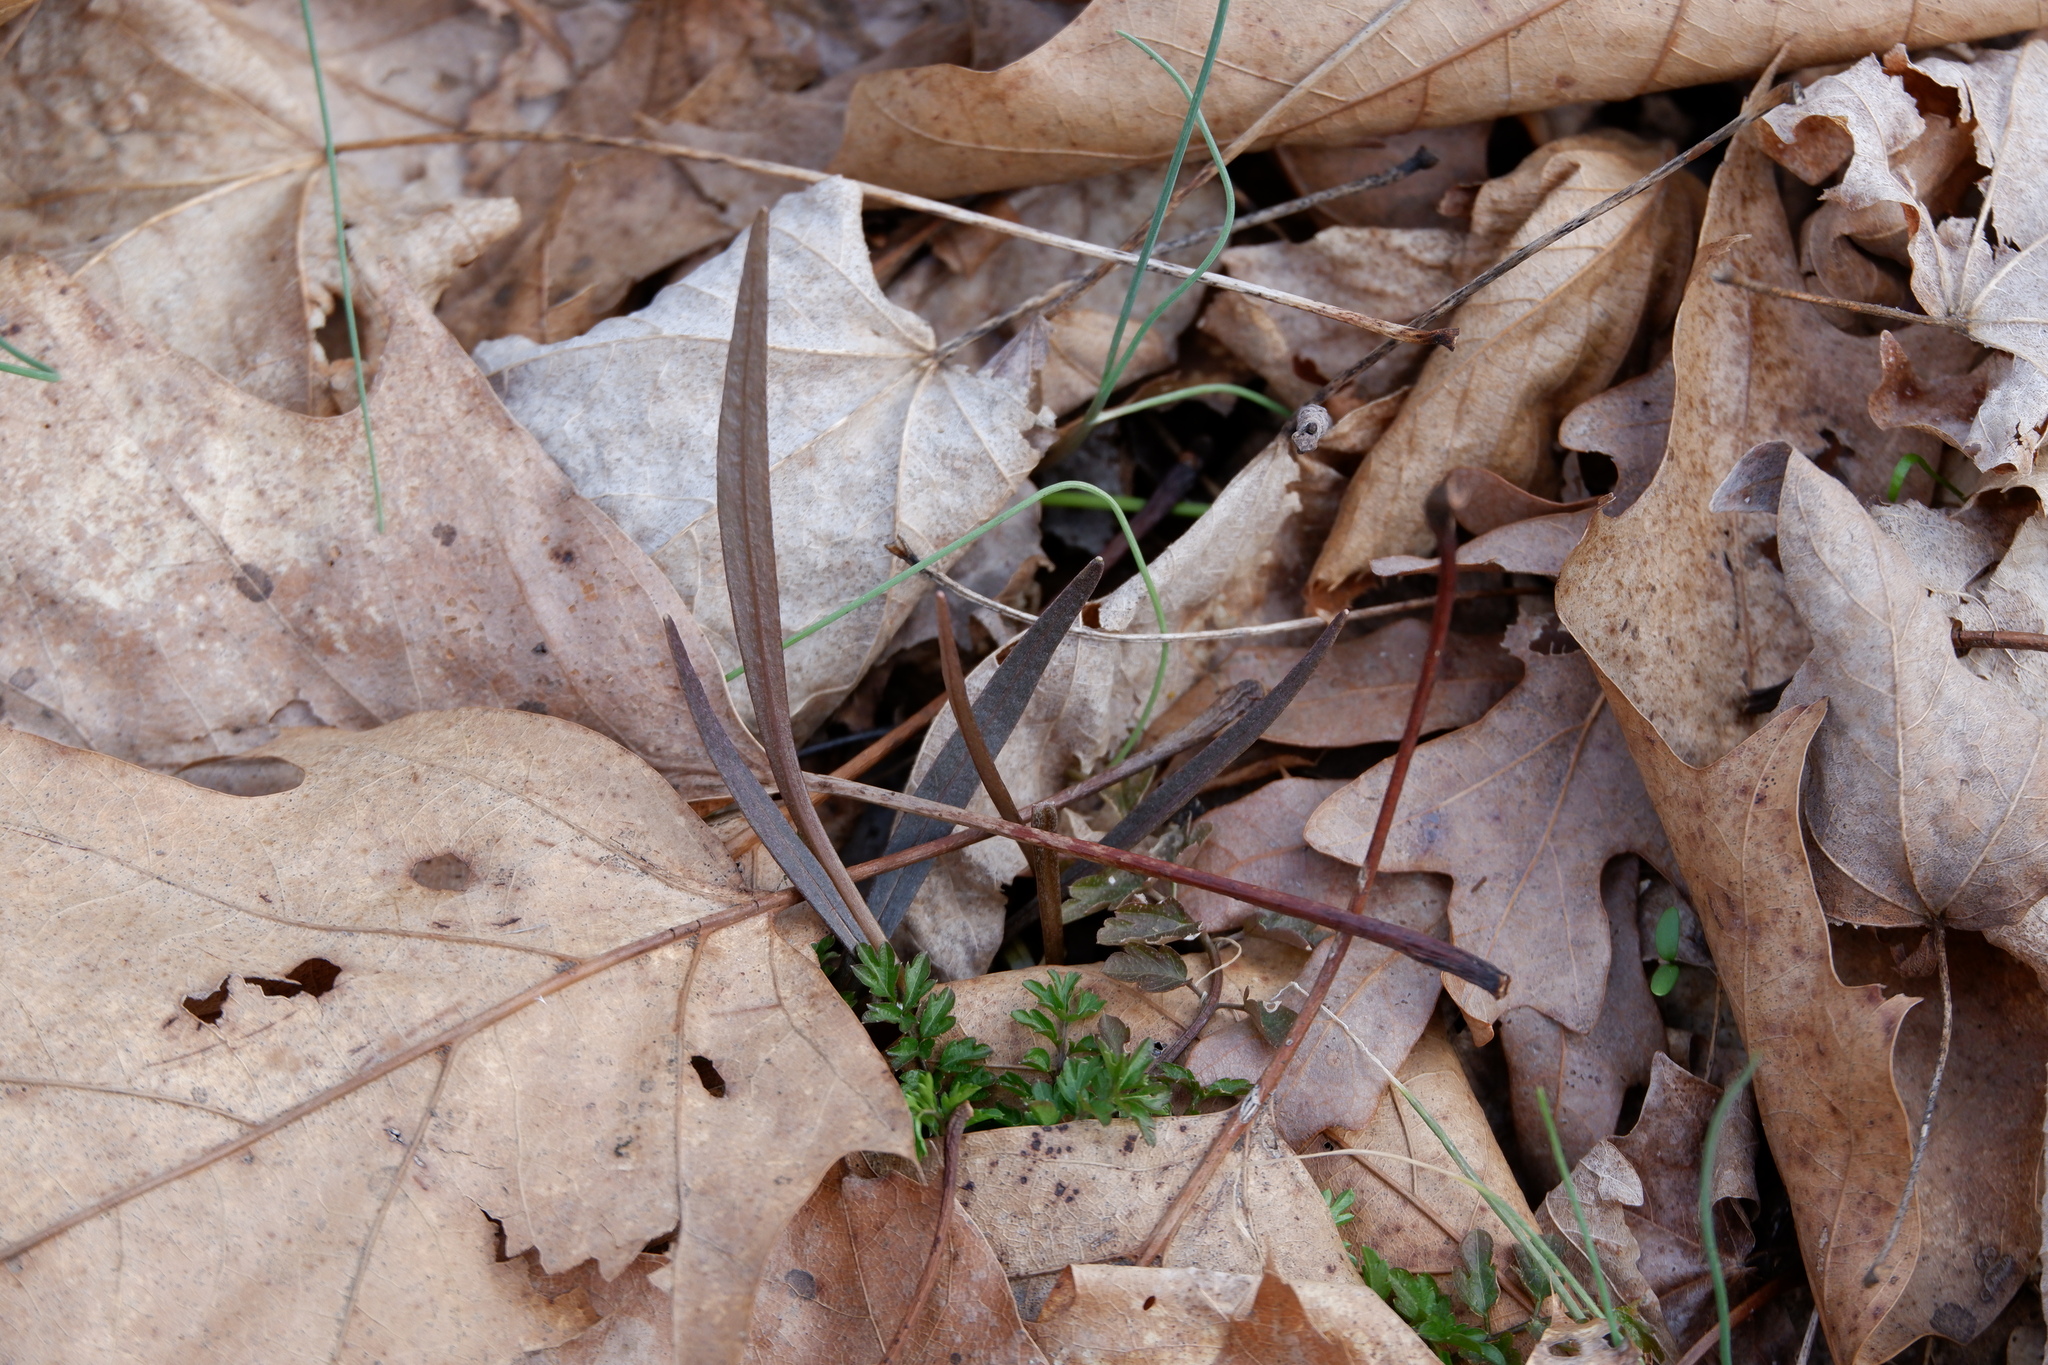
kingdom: Plantae
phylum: Tracheophyta
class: Magnoliopsida
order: Caryophyllales
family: Montiaceae
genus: Claytonia
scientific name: Claytonia virginica
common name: Virginia springbeauty
